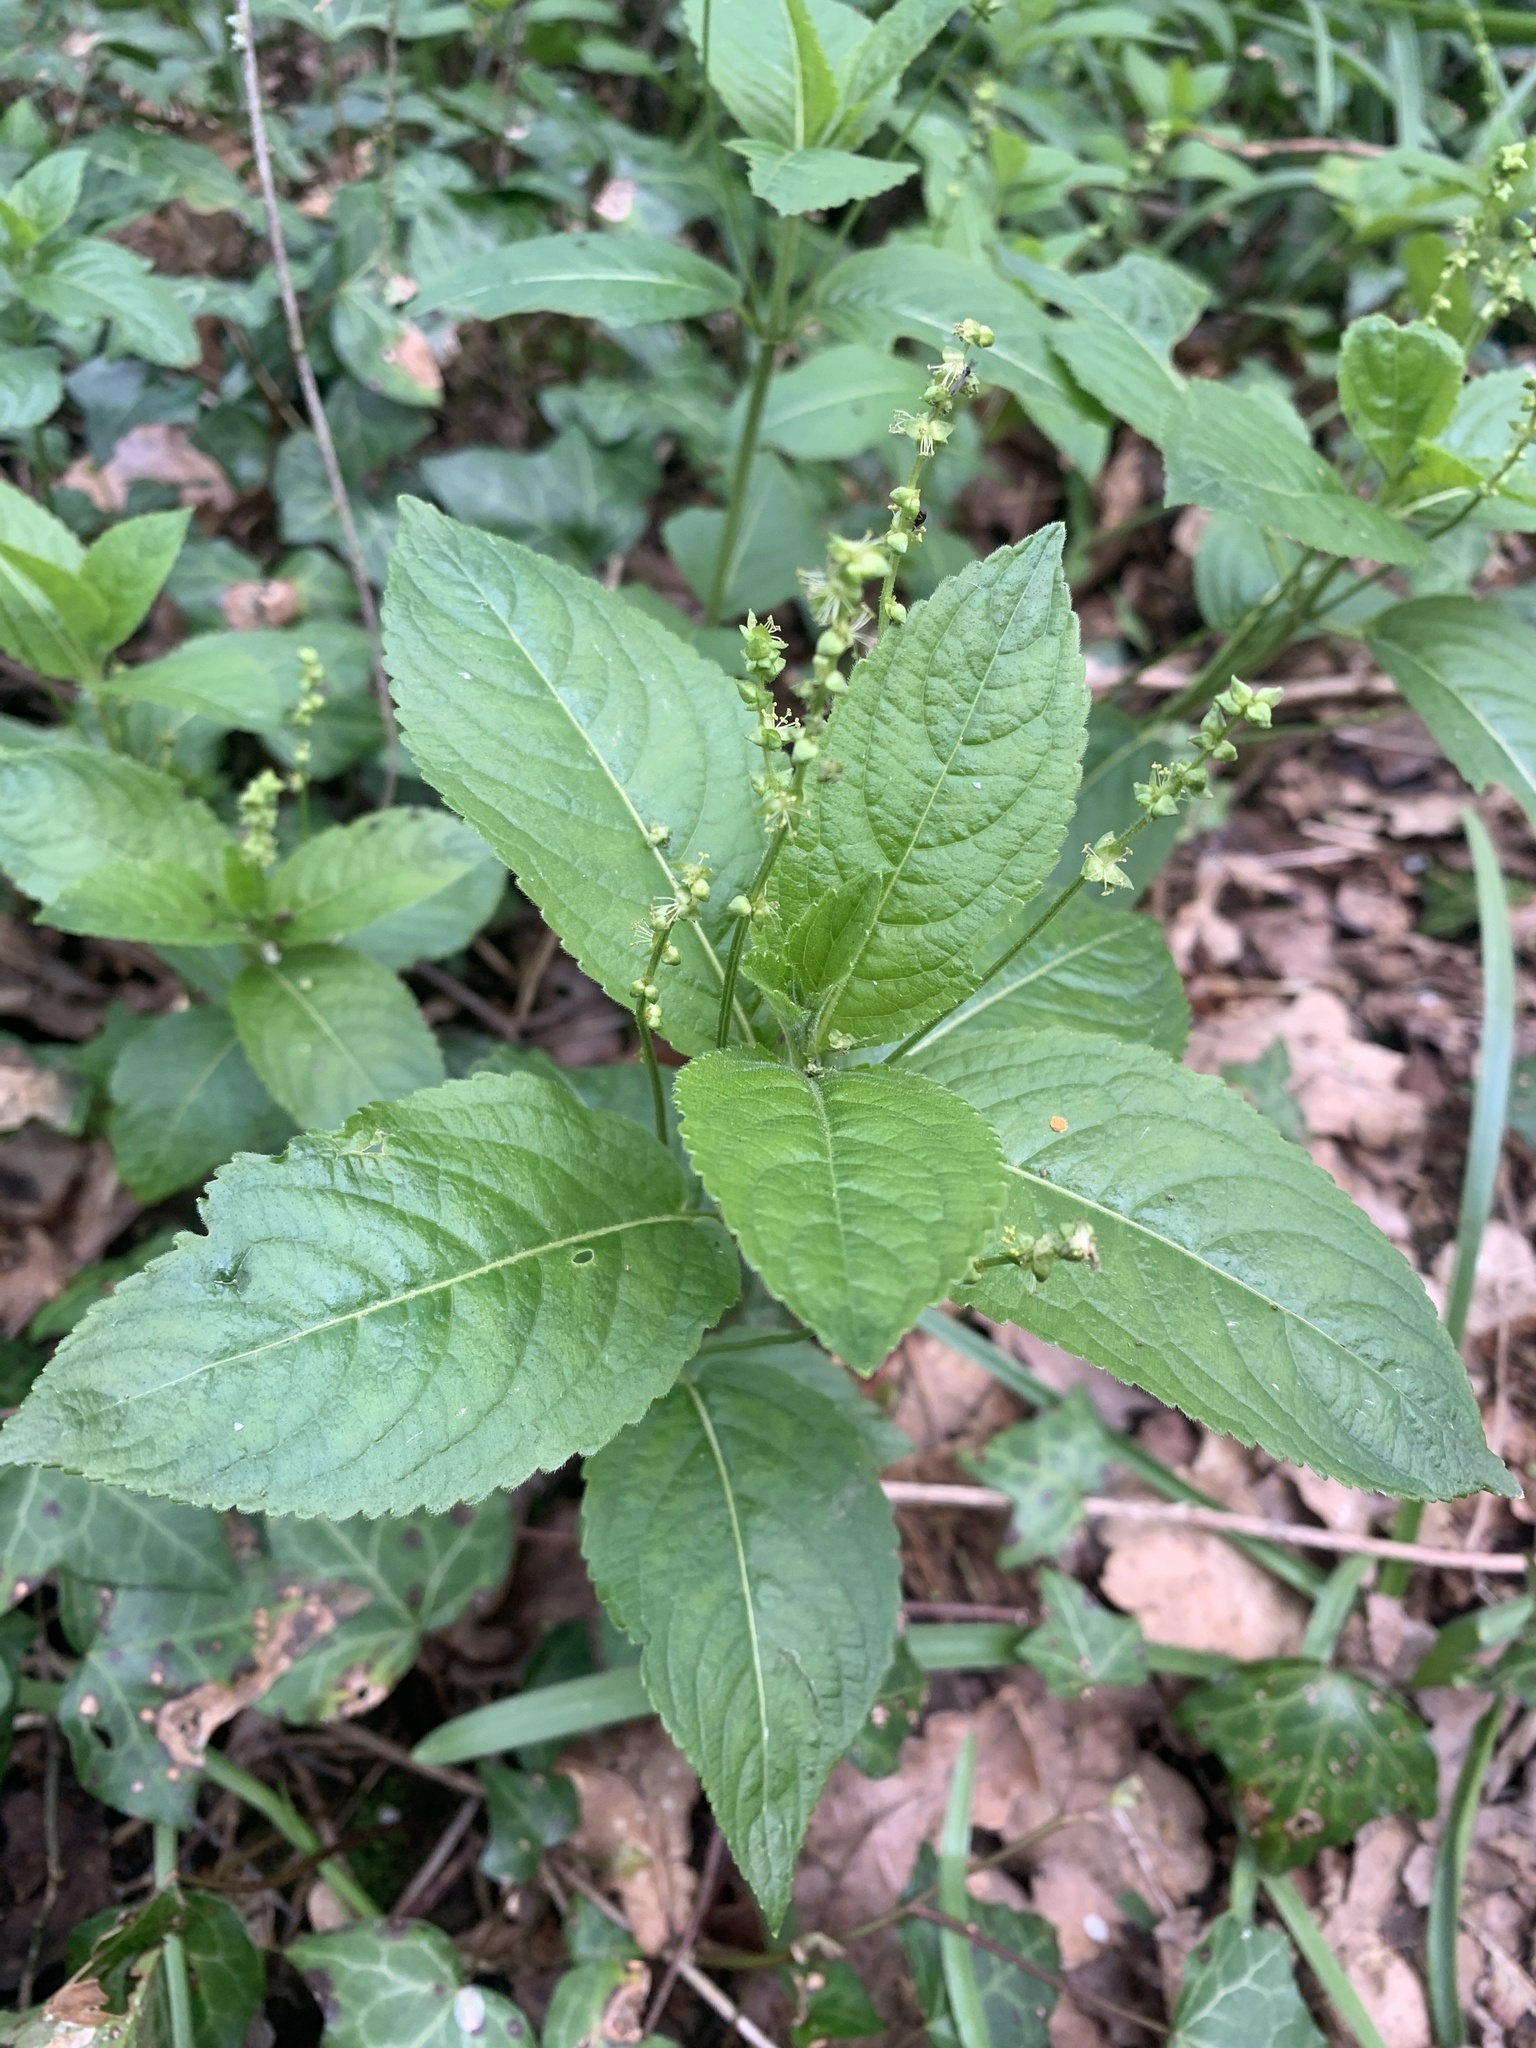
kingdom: Plantae
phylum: Tracheophyta
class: Magnoliopsida
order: Malpighiales
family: Euphorbiaceae
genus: Mercurialis
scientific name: Mercurialis perennis
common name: Dog mercury
